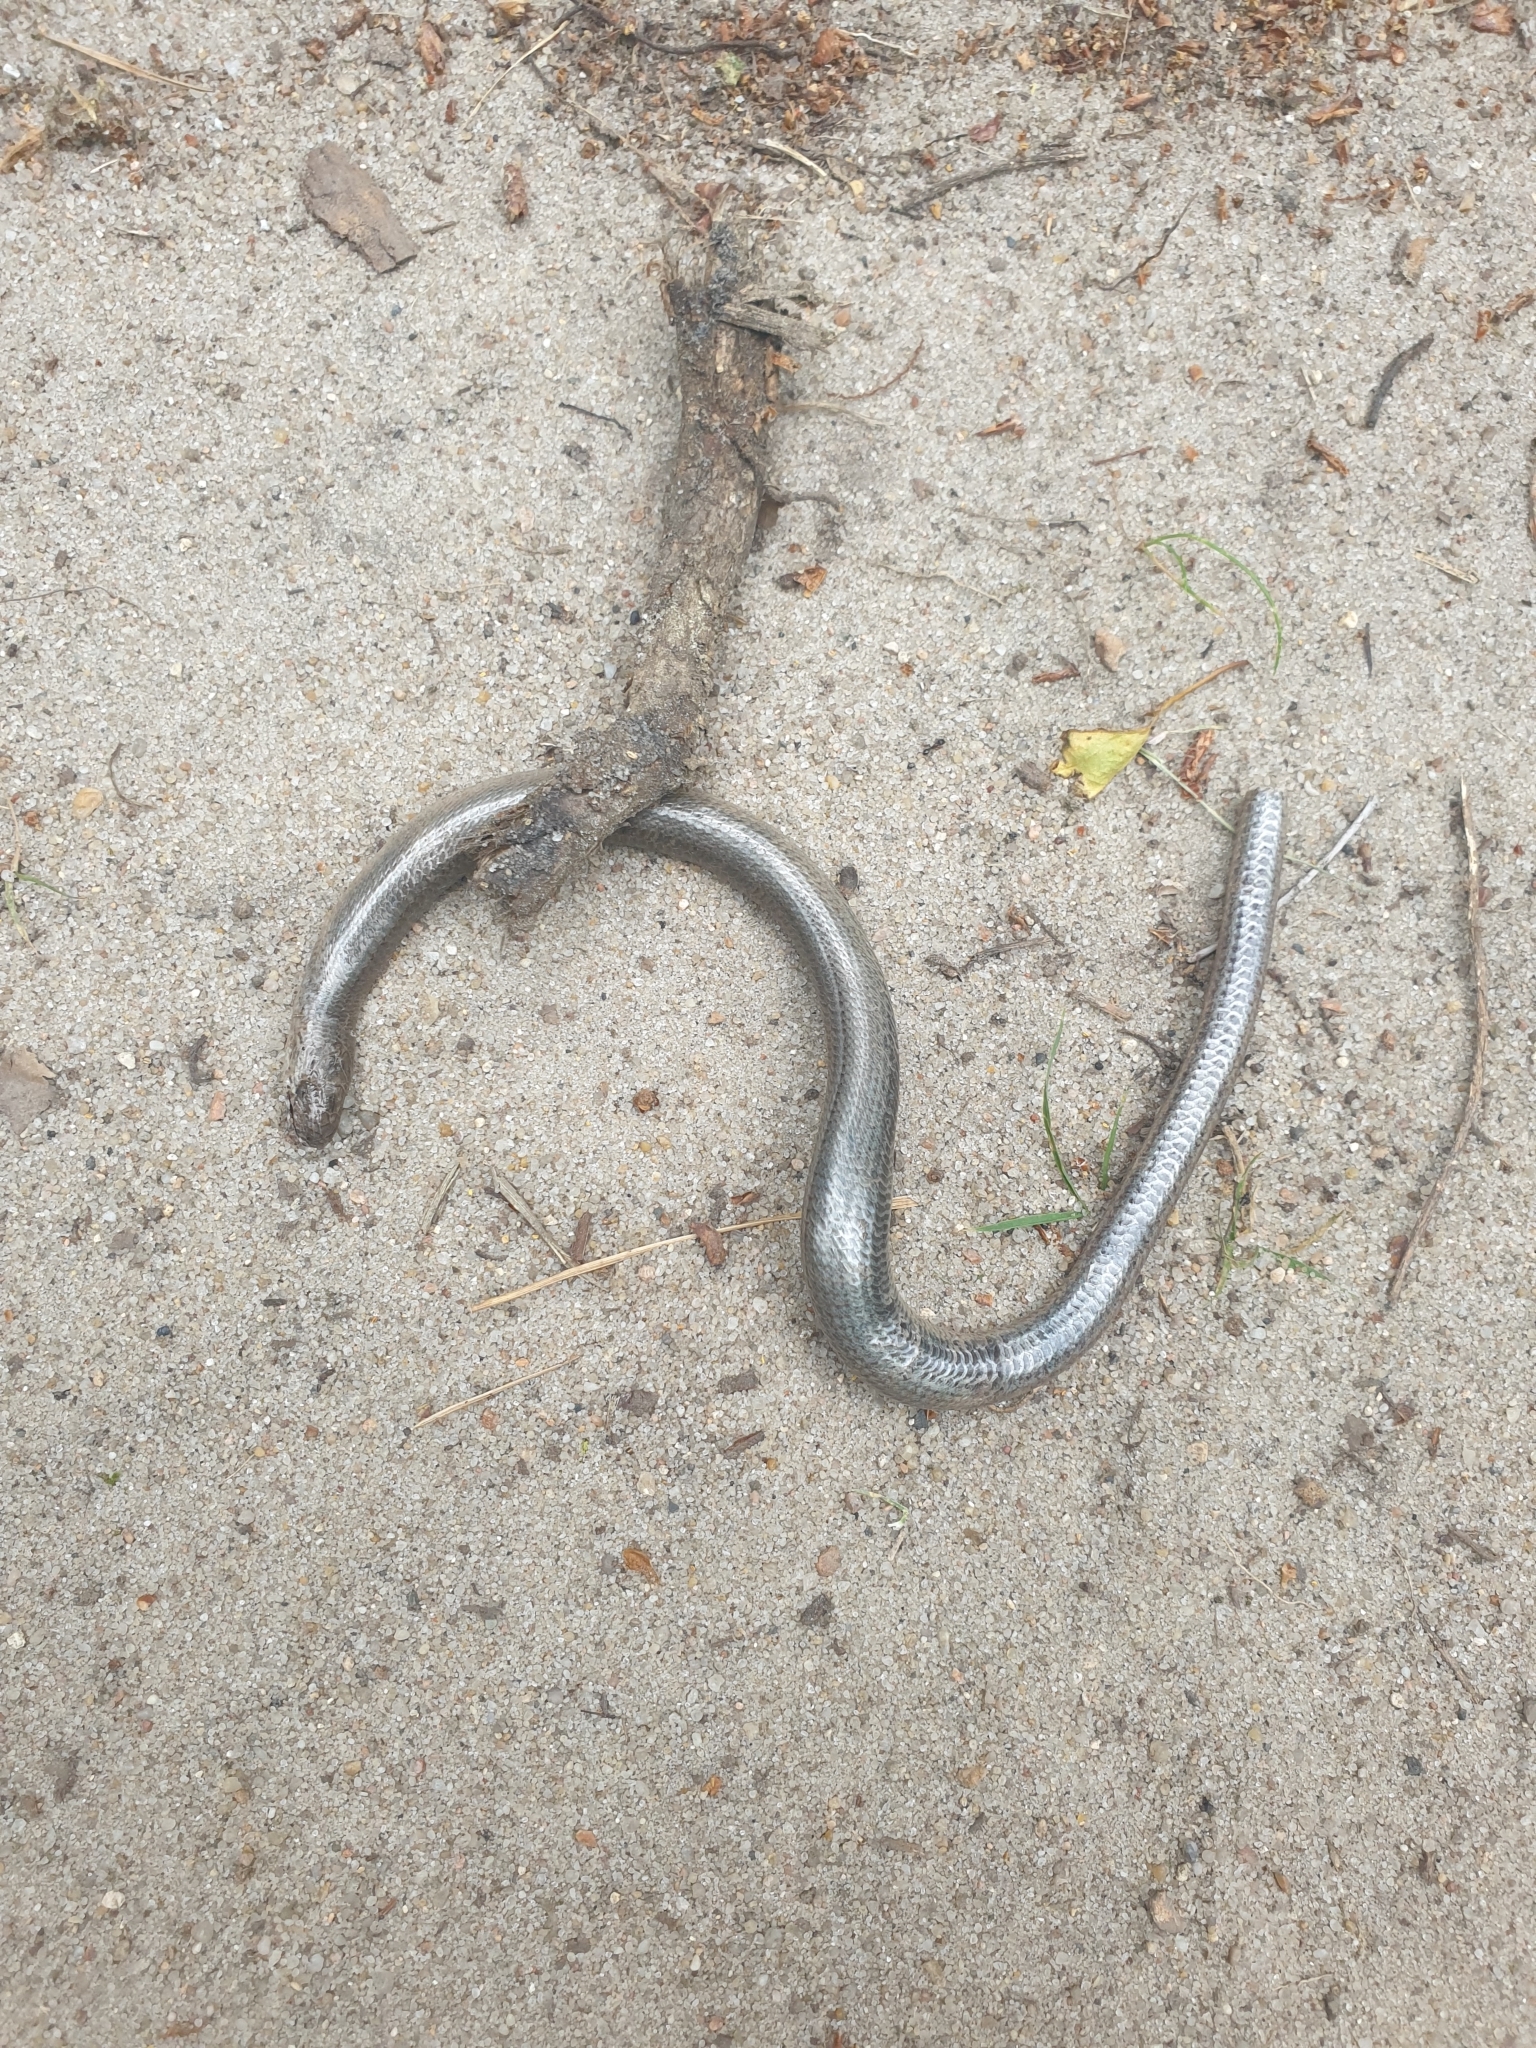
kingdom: Animalia
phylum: Chordata
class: Squamata
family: Anguidae
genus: Anguis
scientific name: Anguis fragilis
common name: Slow worm
